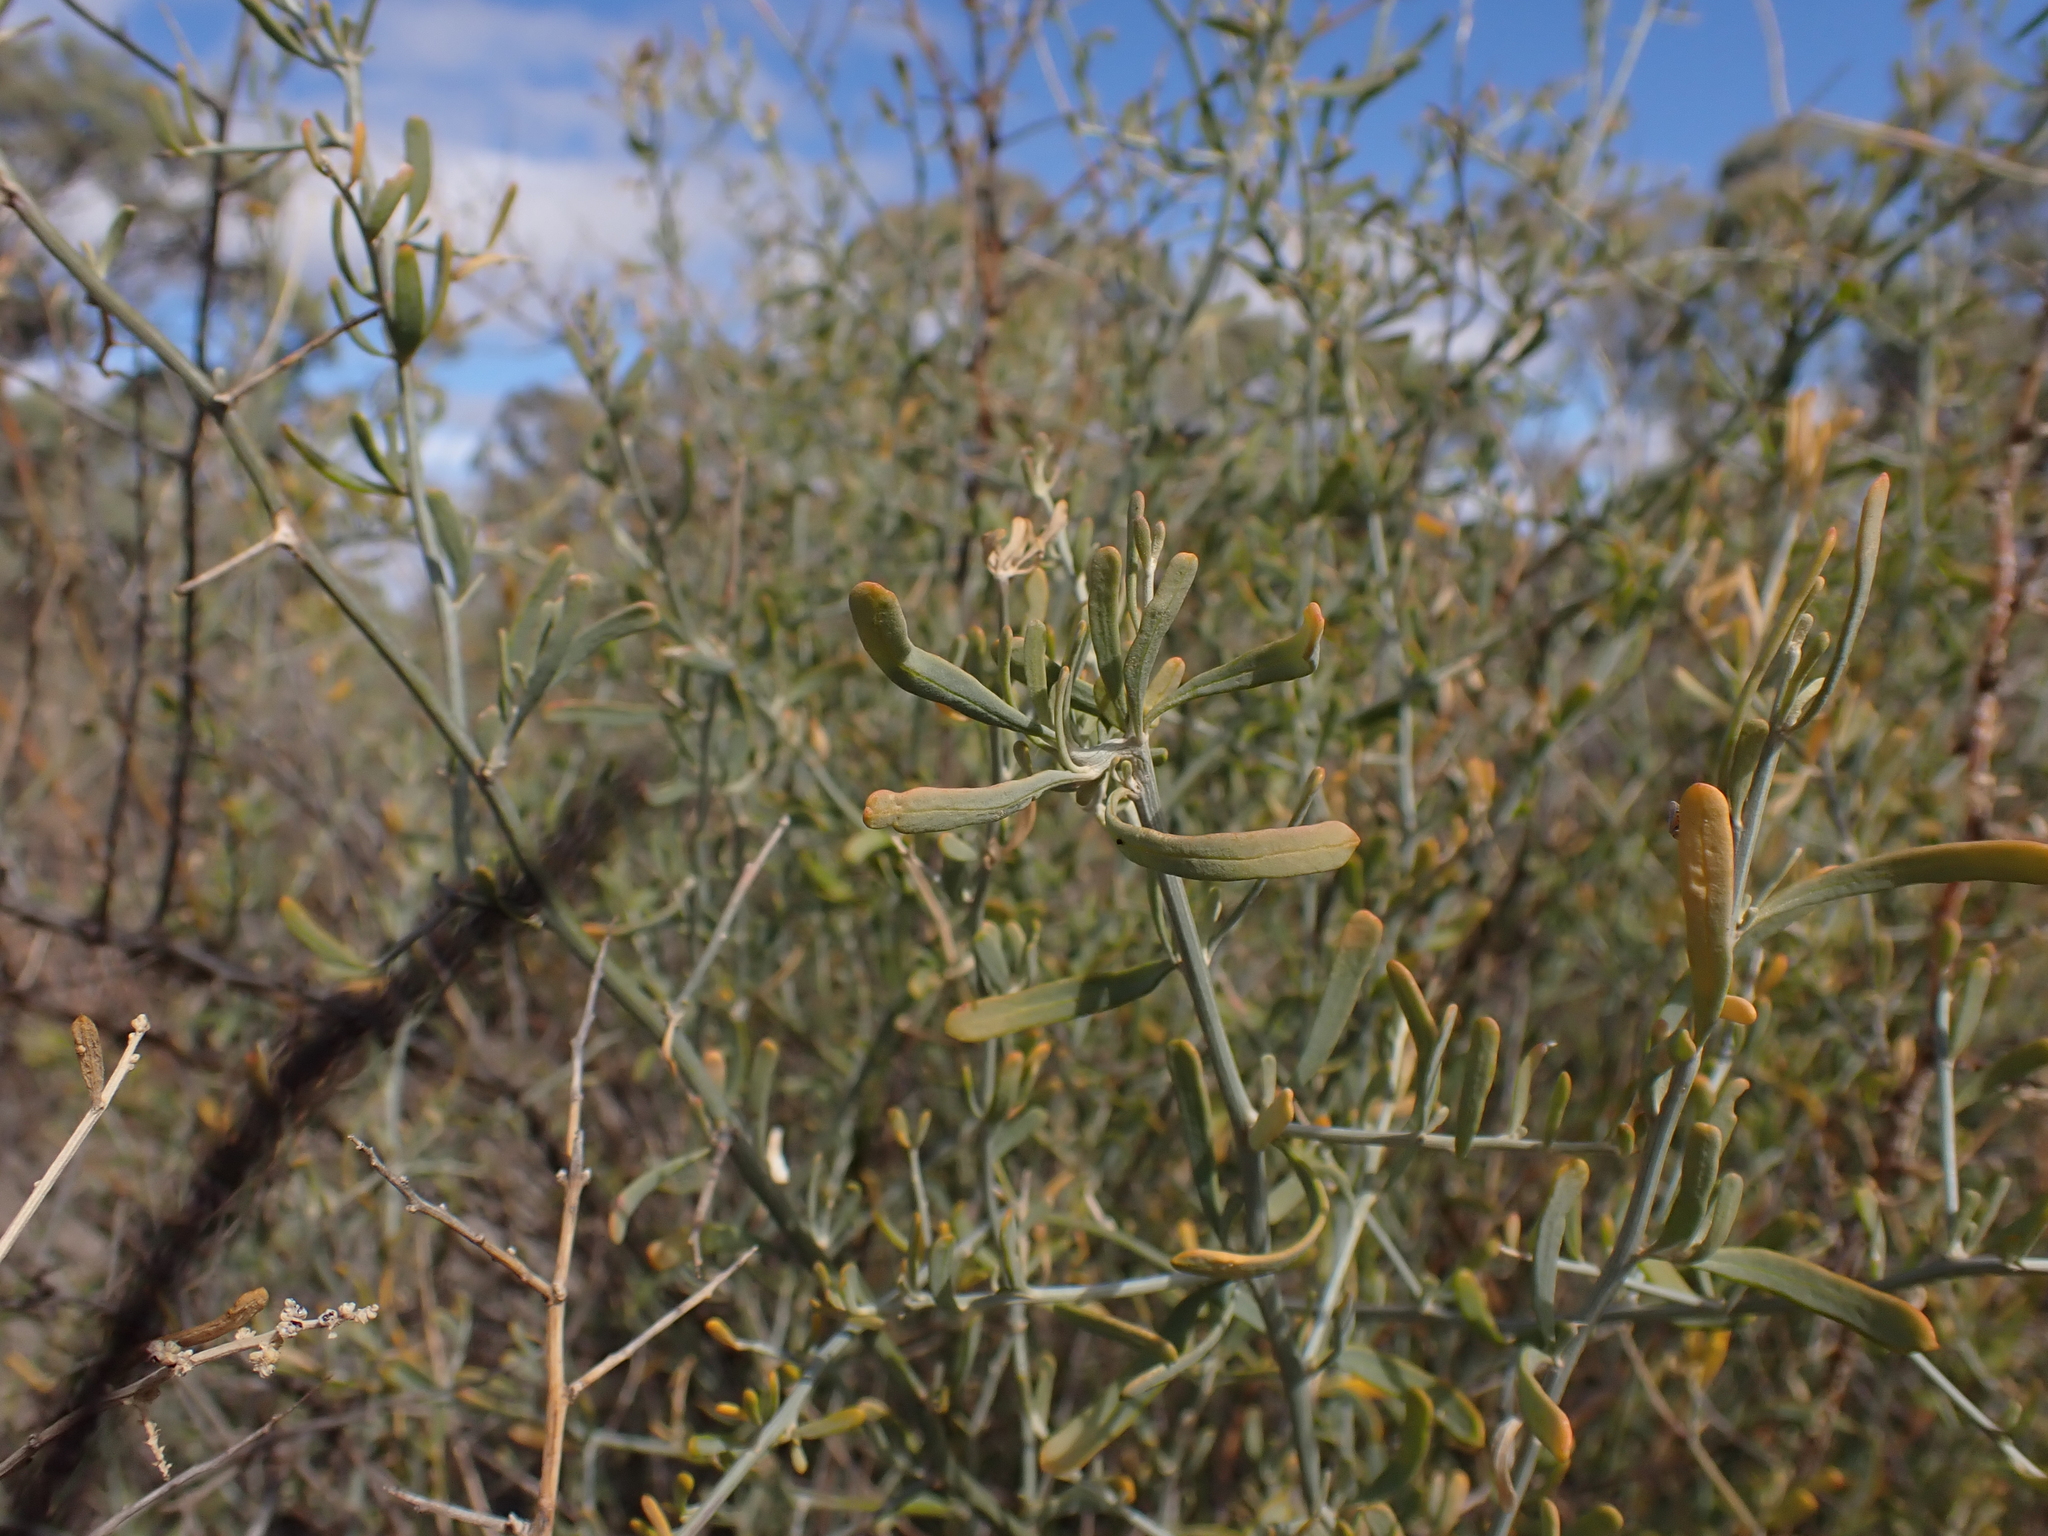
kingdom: Plantae
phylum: Tracheophyta
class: Magnoliopsida
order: Caryophyllales
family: Amaranthaceae
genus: Chenopodium
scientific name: Chenopodium nitrariaceum
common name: Nitre goosefoot
